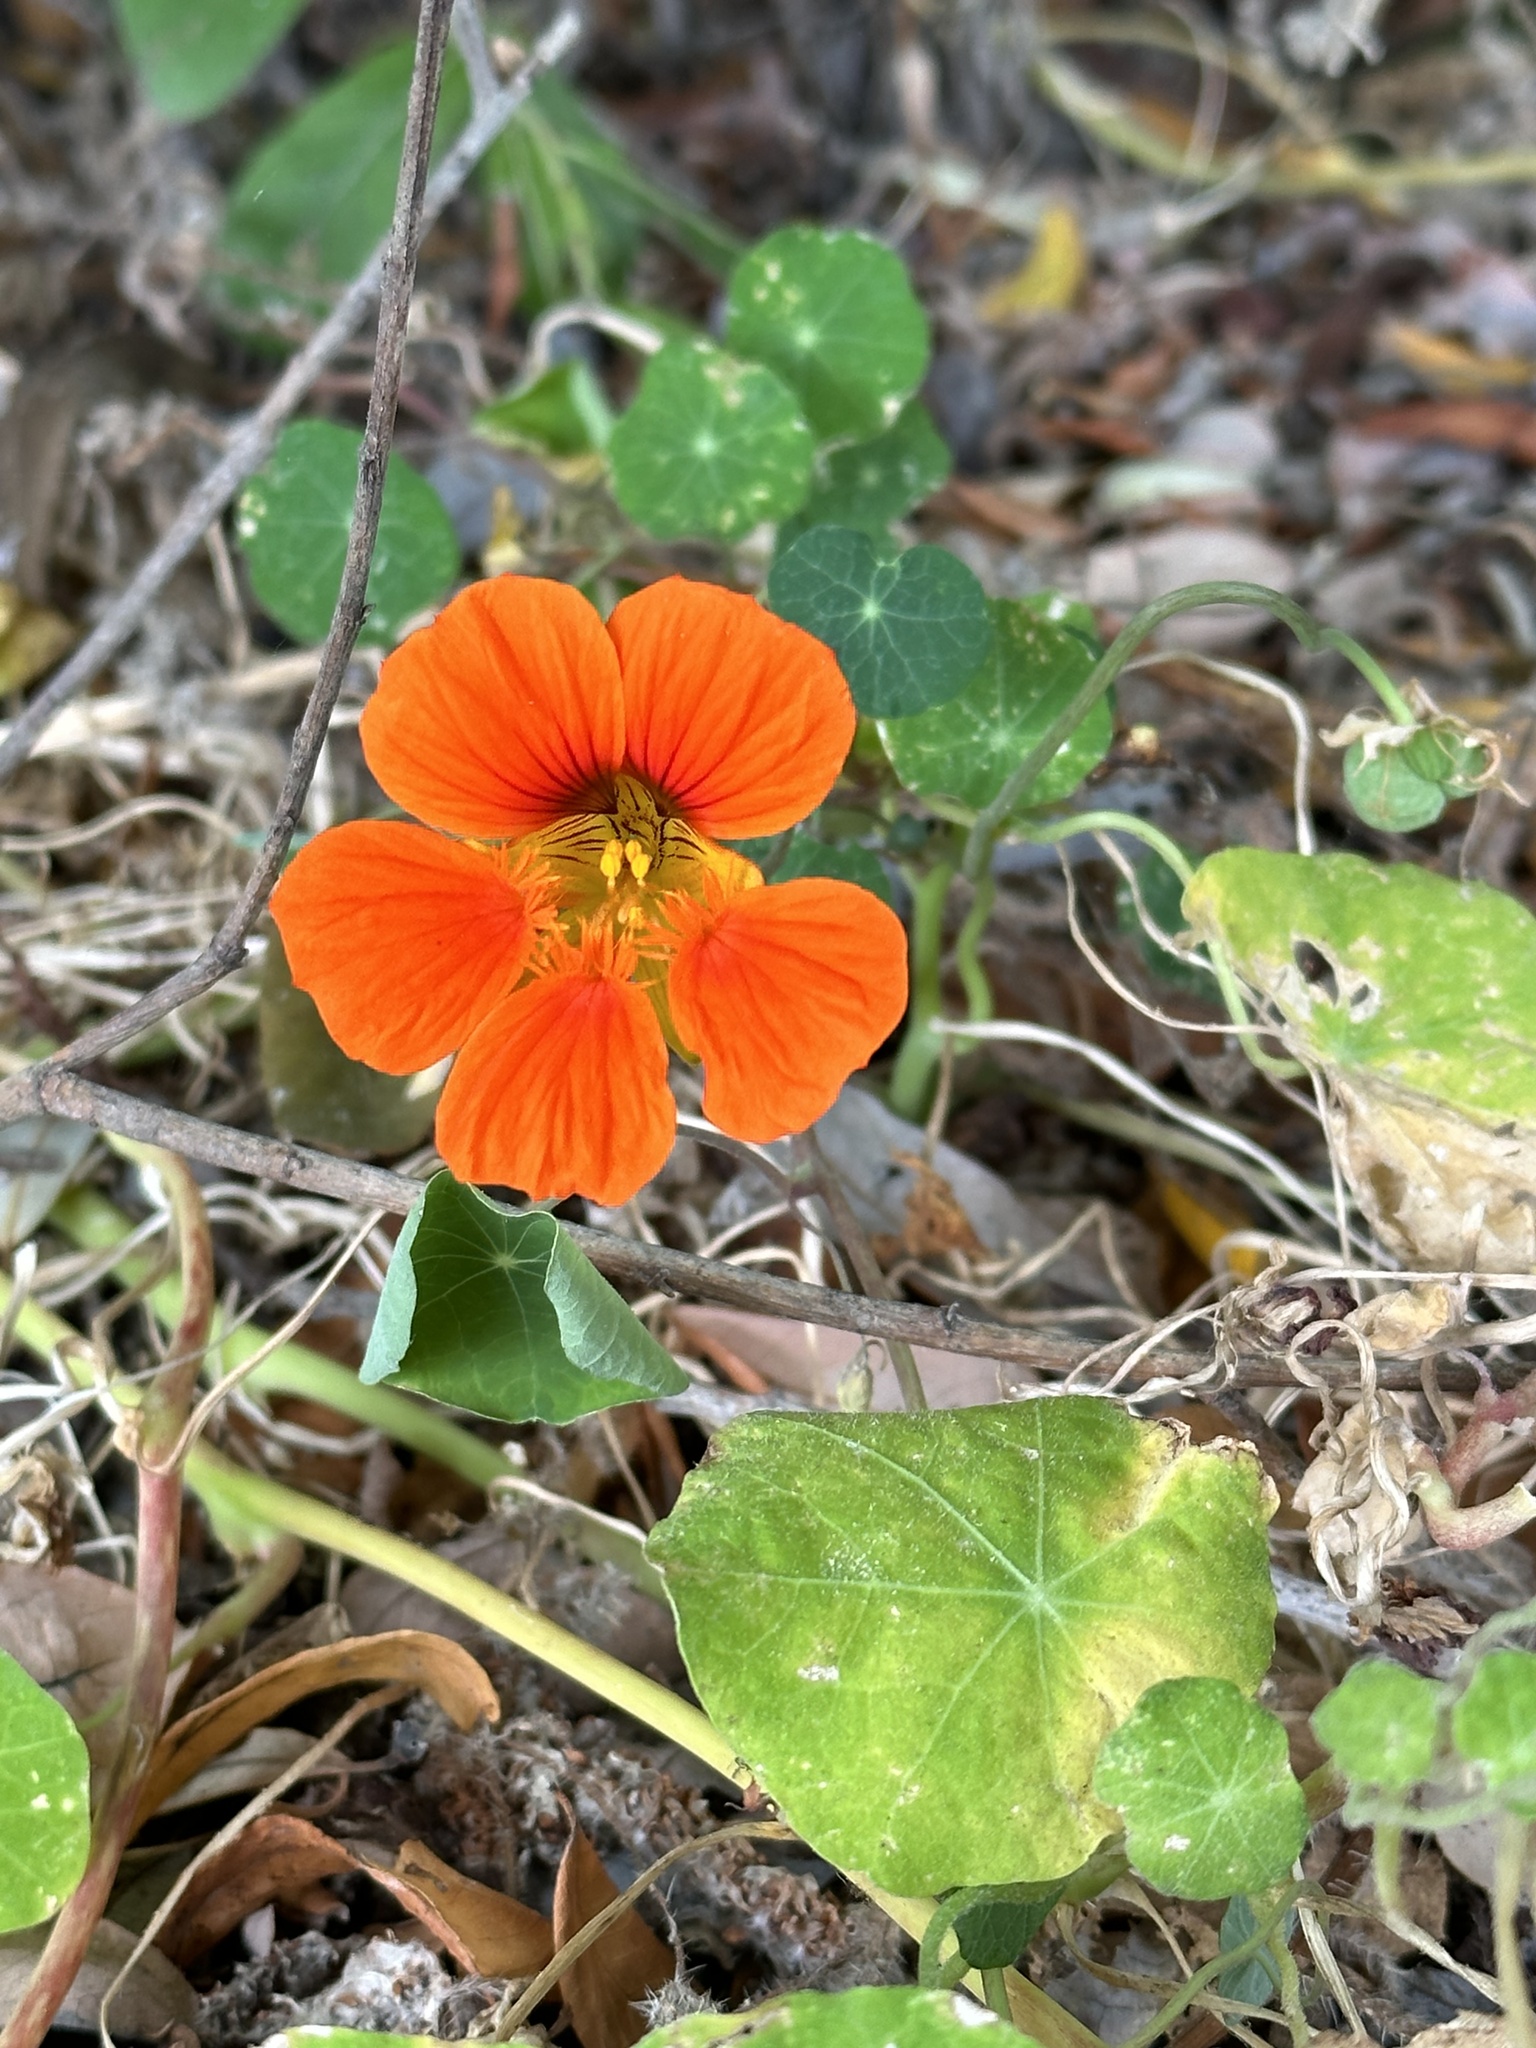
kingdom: Plantae
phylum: Tracheophyta
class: Magnoliopsida
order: Brassicales
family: Tropaeolaceae
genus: Tropaeolum
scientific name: Tropaeolum majus
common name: Nasturtium
